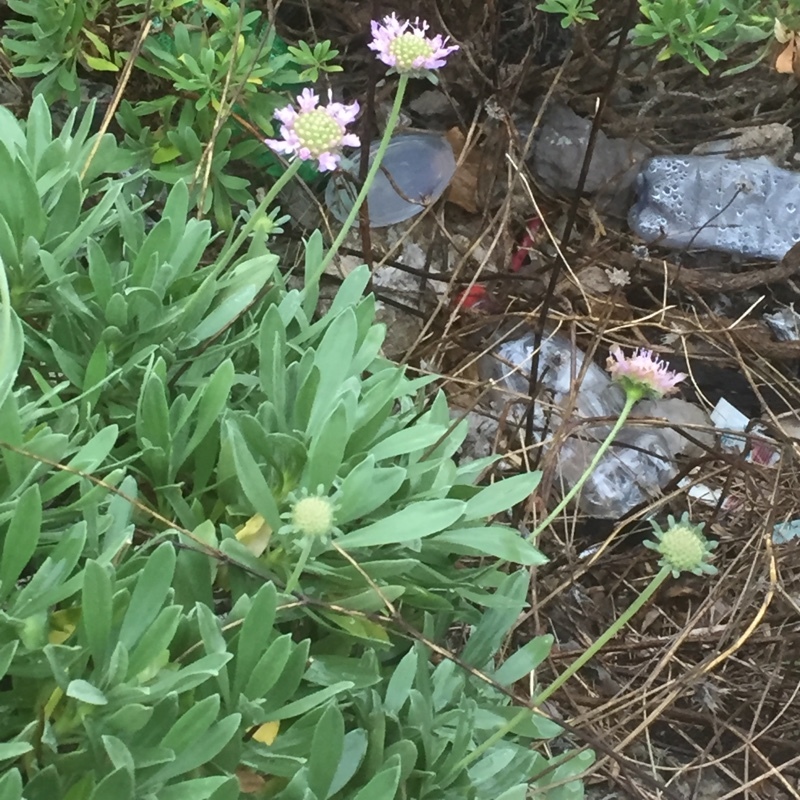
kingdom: Plantae
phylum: Tracheophyta
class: Magnoliopsida
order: Dipsacales
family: Caprifoliaceae
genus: Lomelosia
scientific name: Lomelosia cretica
